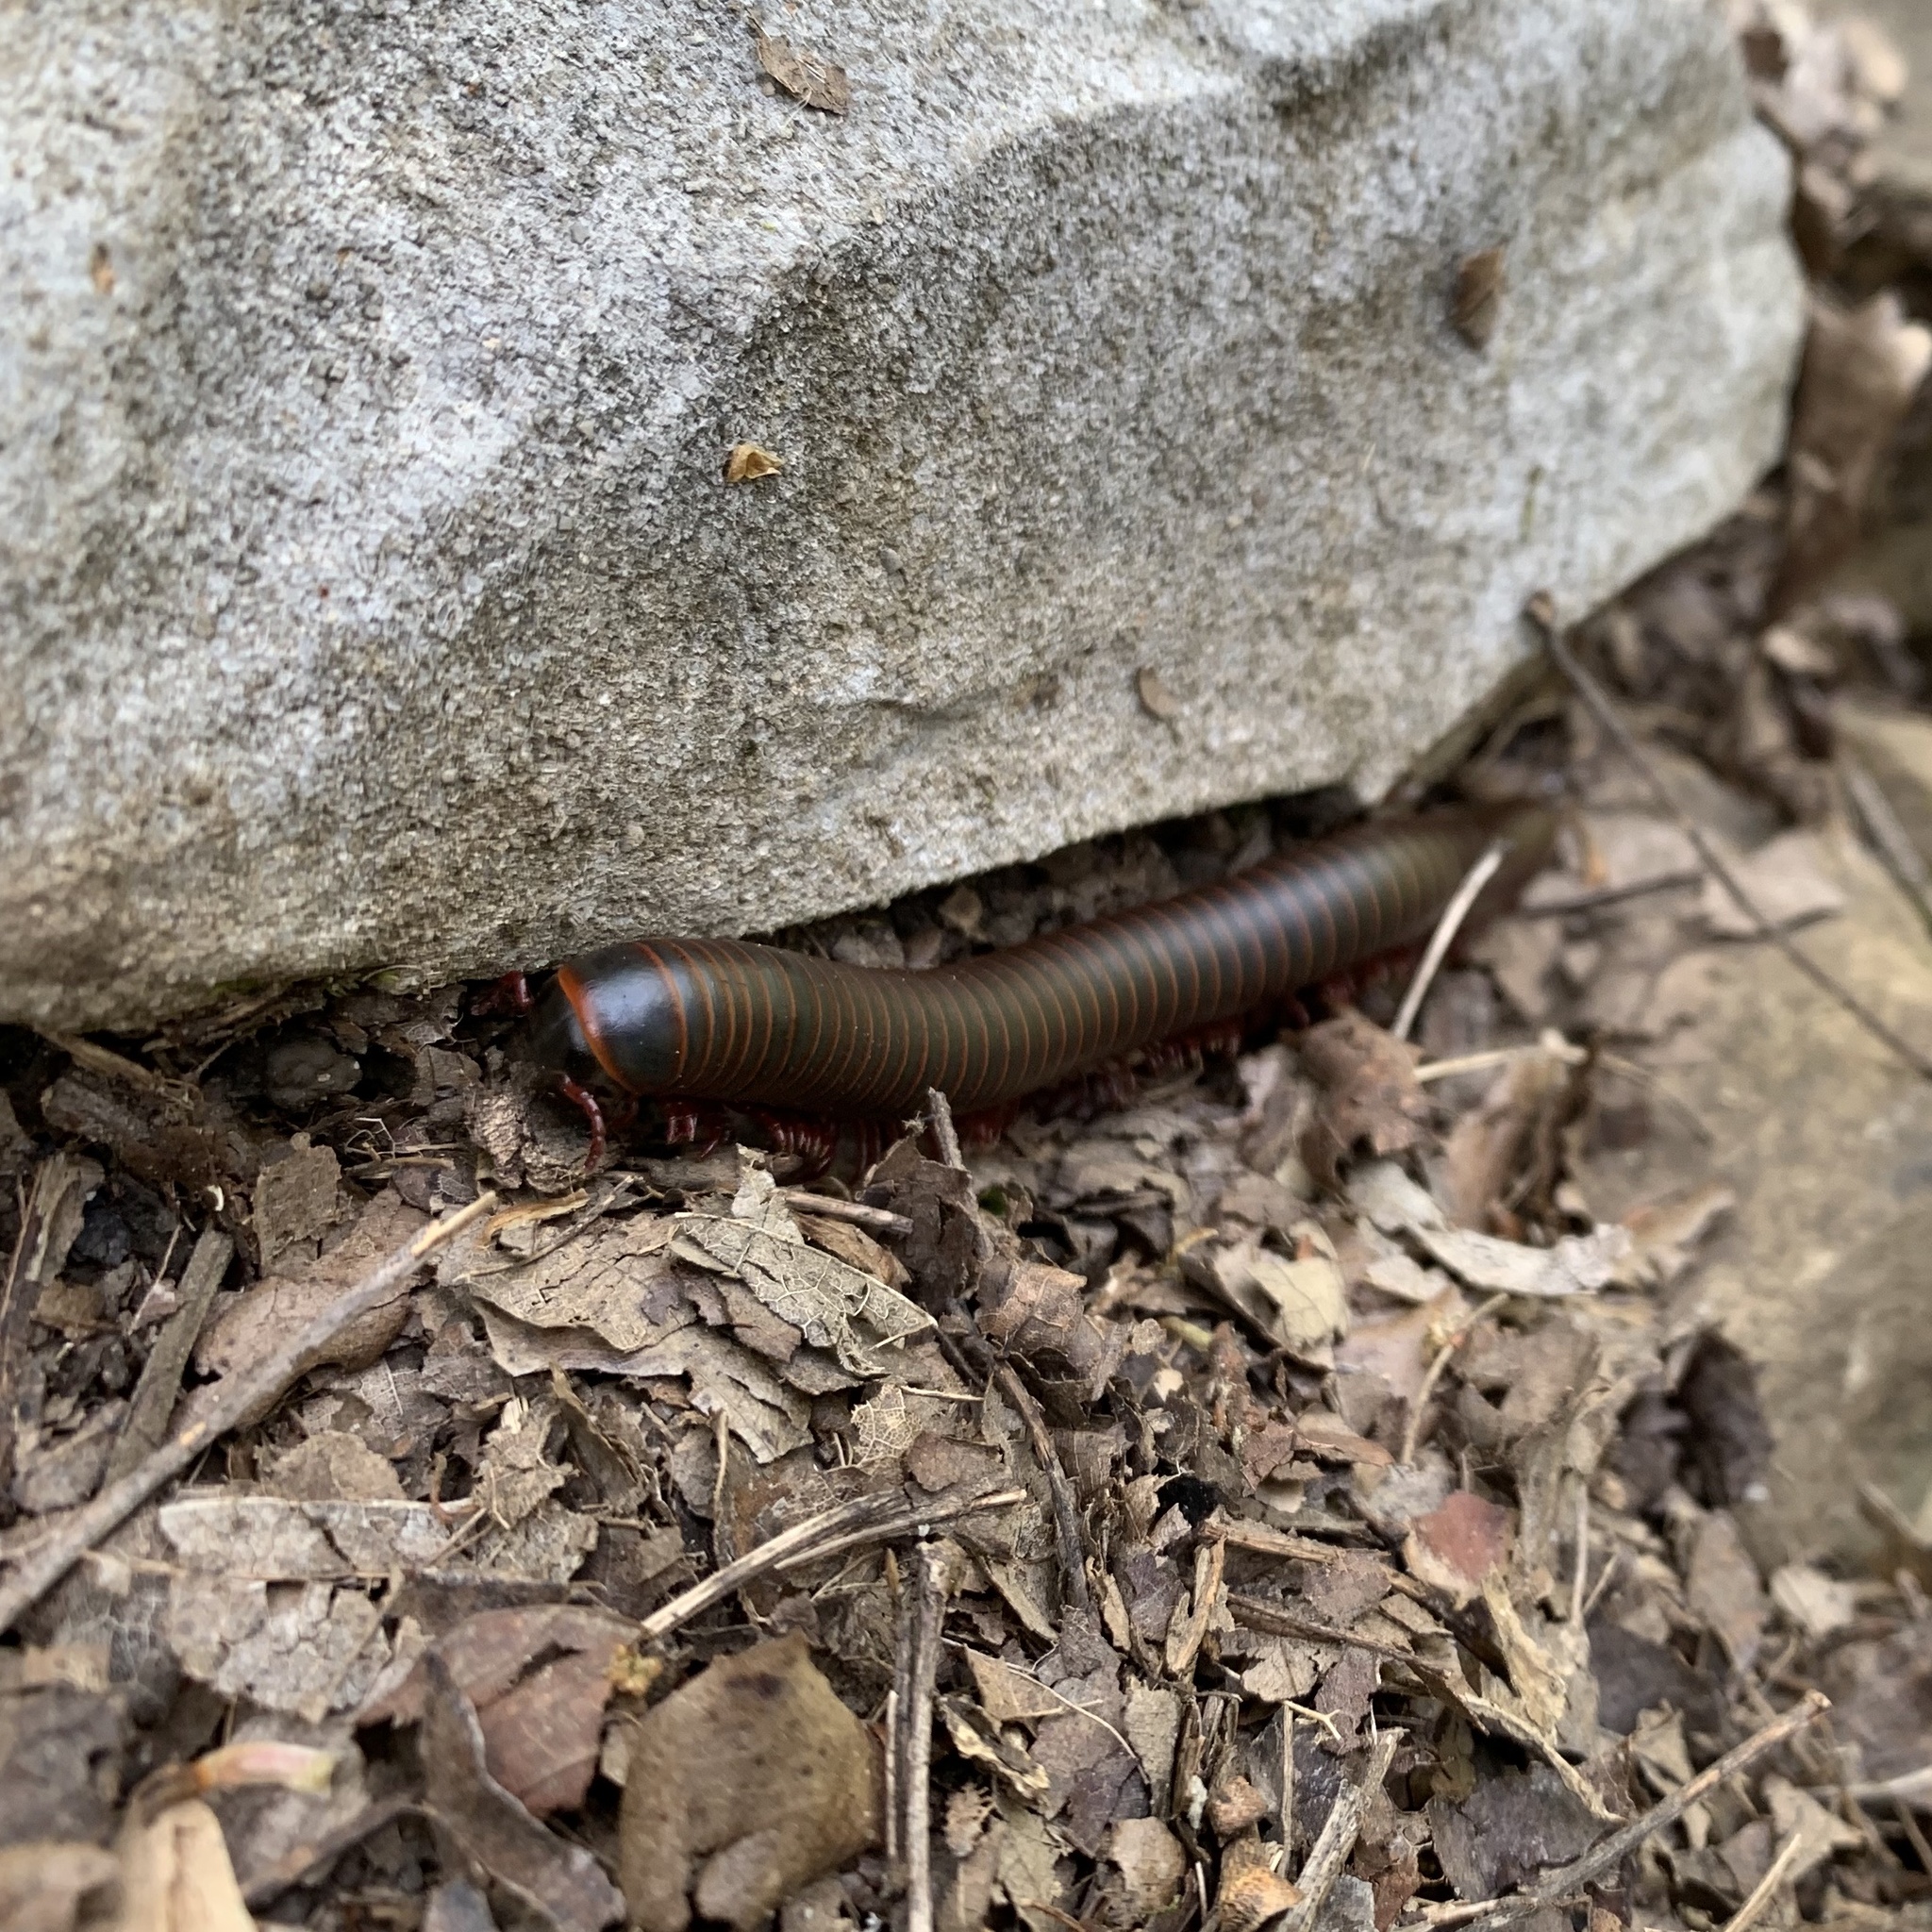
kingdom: Animalia
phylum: Arthropoda
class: Diplopoda
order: Spirobolida
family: Spirobolidae
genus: Narceus
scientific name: Narceus
